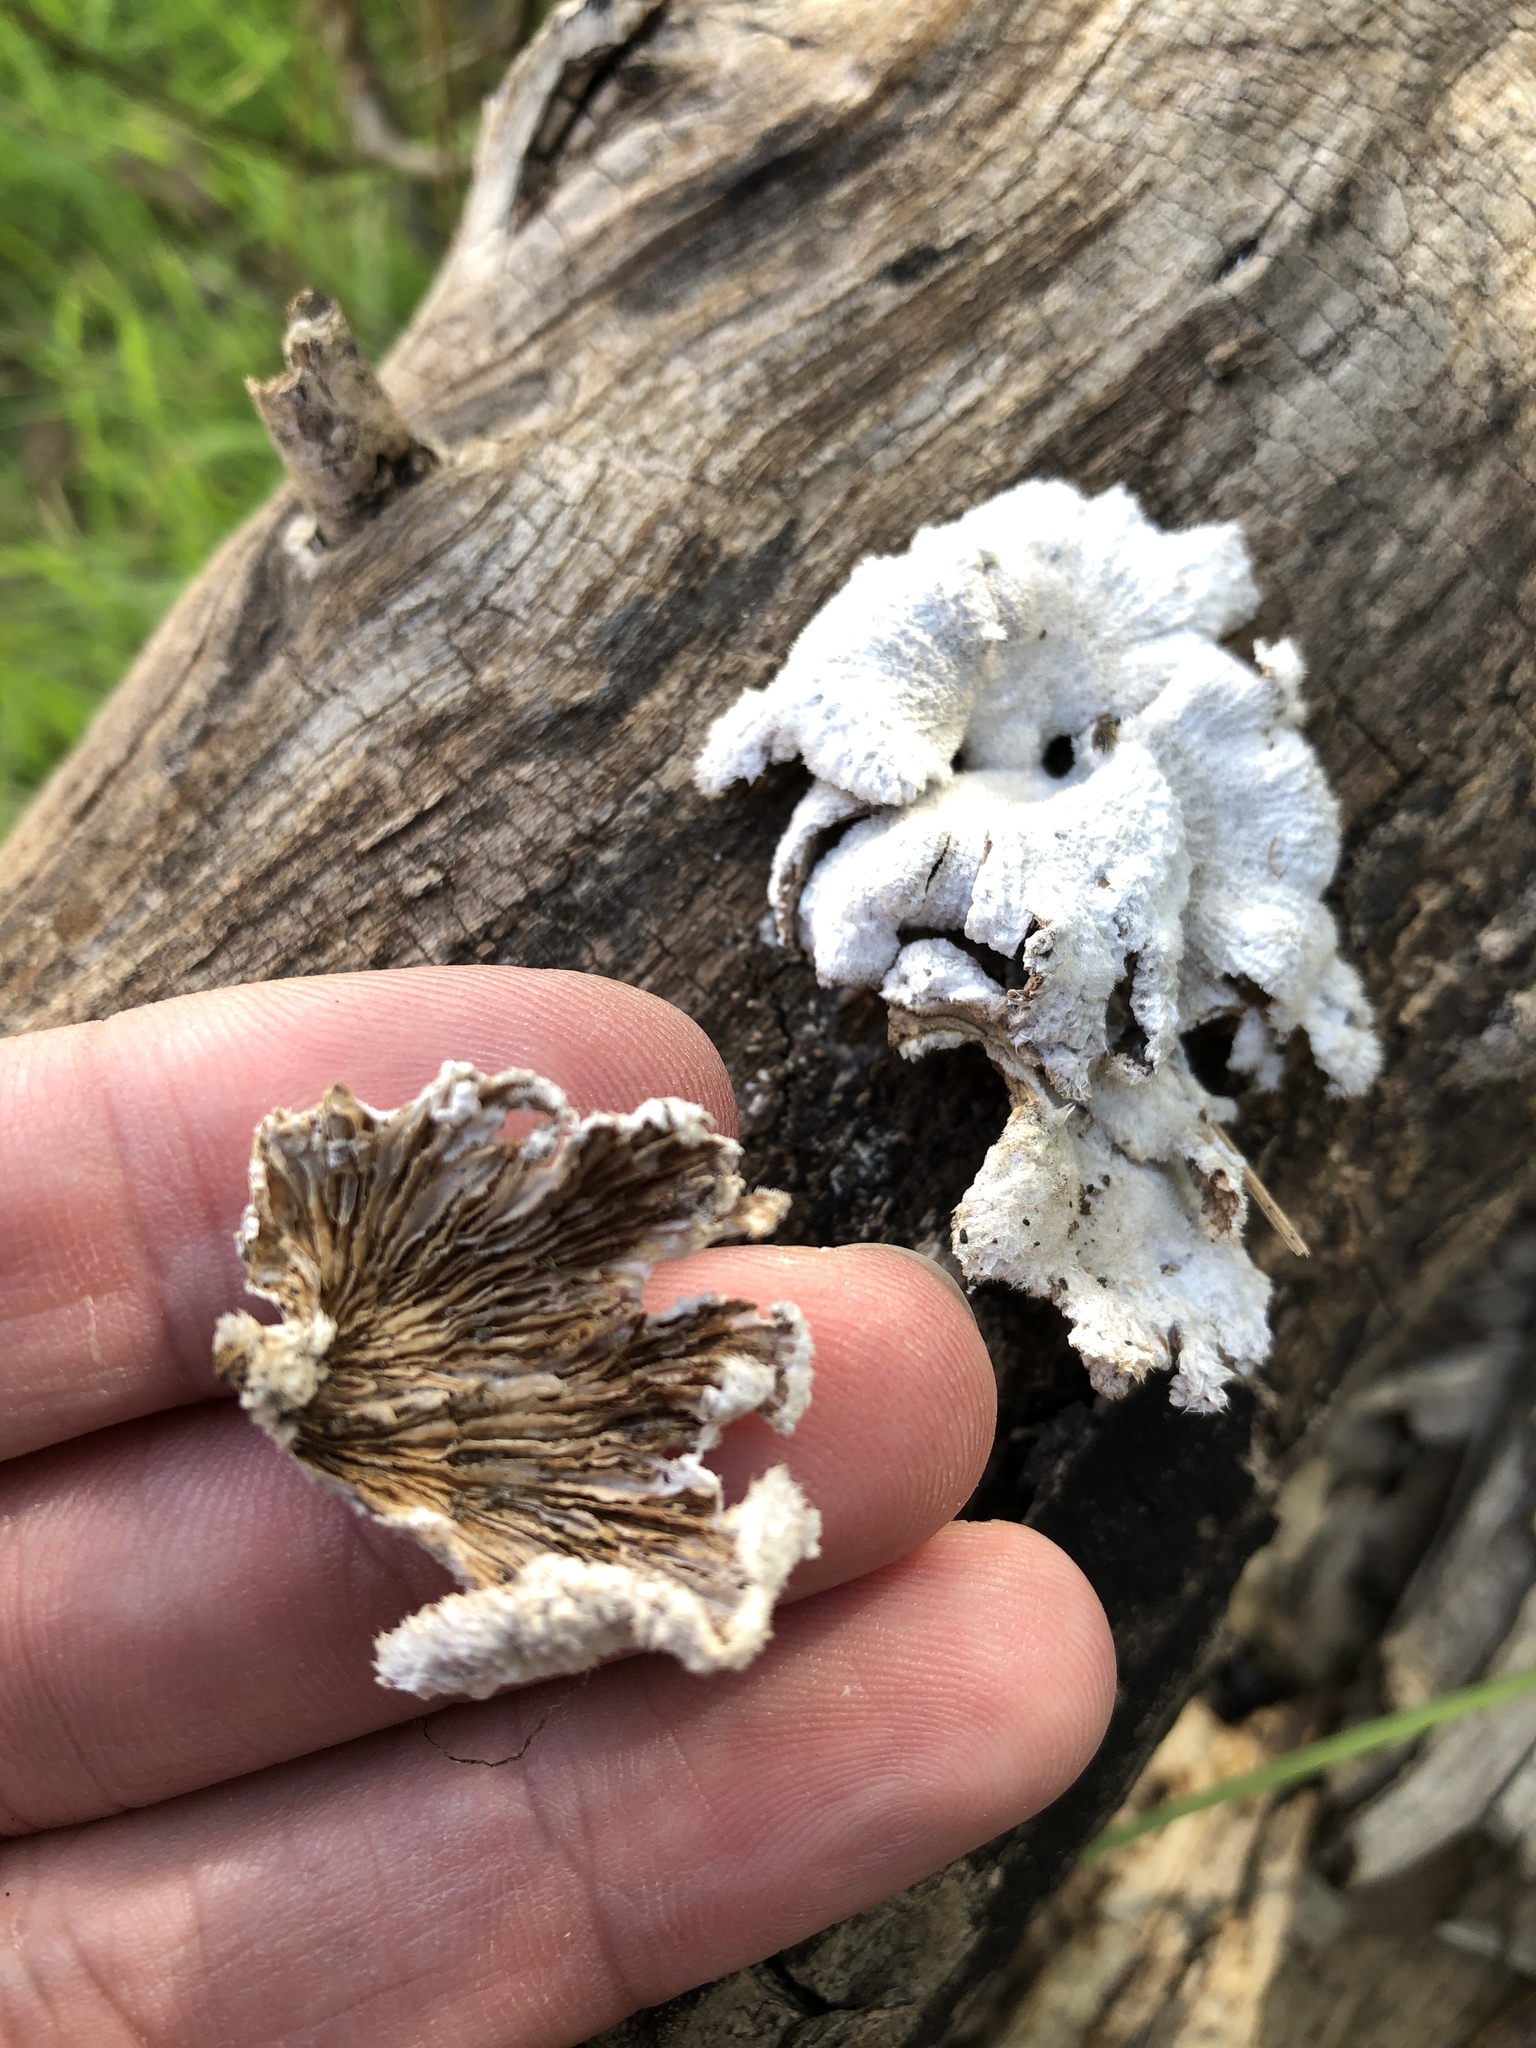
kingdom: Fungi
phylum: Basidiomycota
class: Agaricomycetes
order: Agaricales
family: Schizophyllaceae
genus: Schizophyllum
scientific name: Schizophyllum commune
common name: Common porecrust
